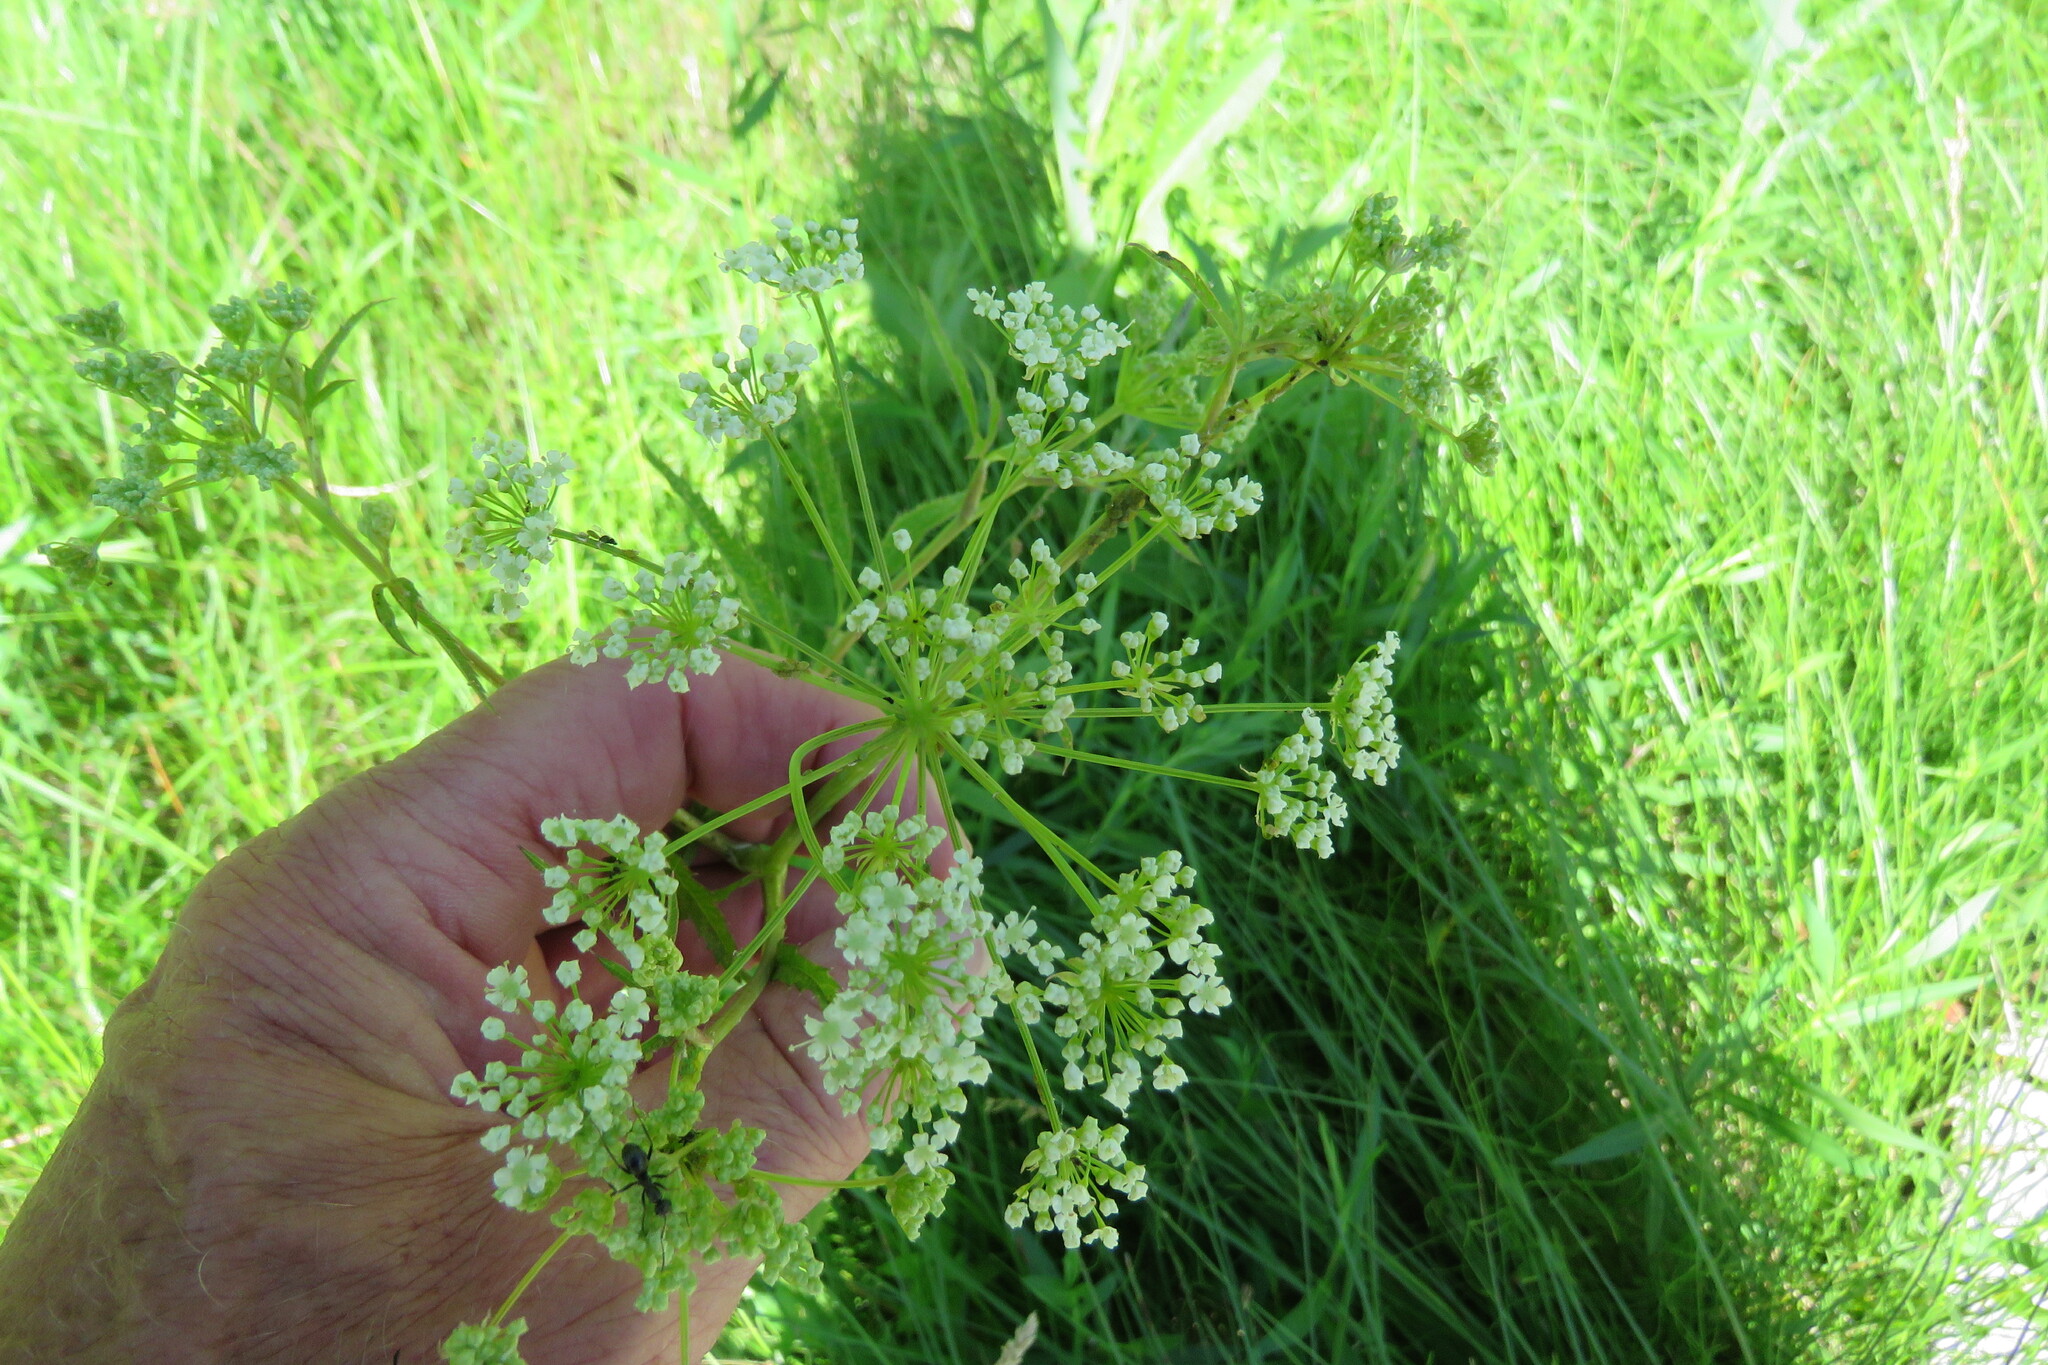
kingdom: Plantae
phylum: Tracheophyta
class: Magnoliopsida
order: Apiales
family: Apiaceae
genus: Cicuta
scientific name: Cicuta maculata
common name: Spotted cowbane
